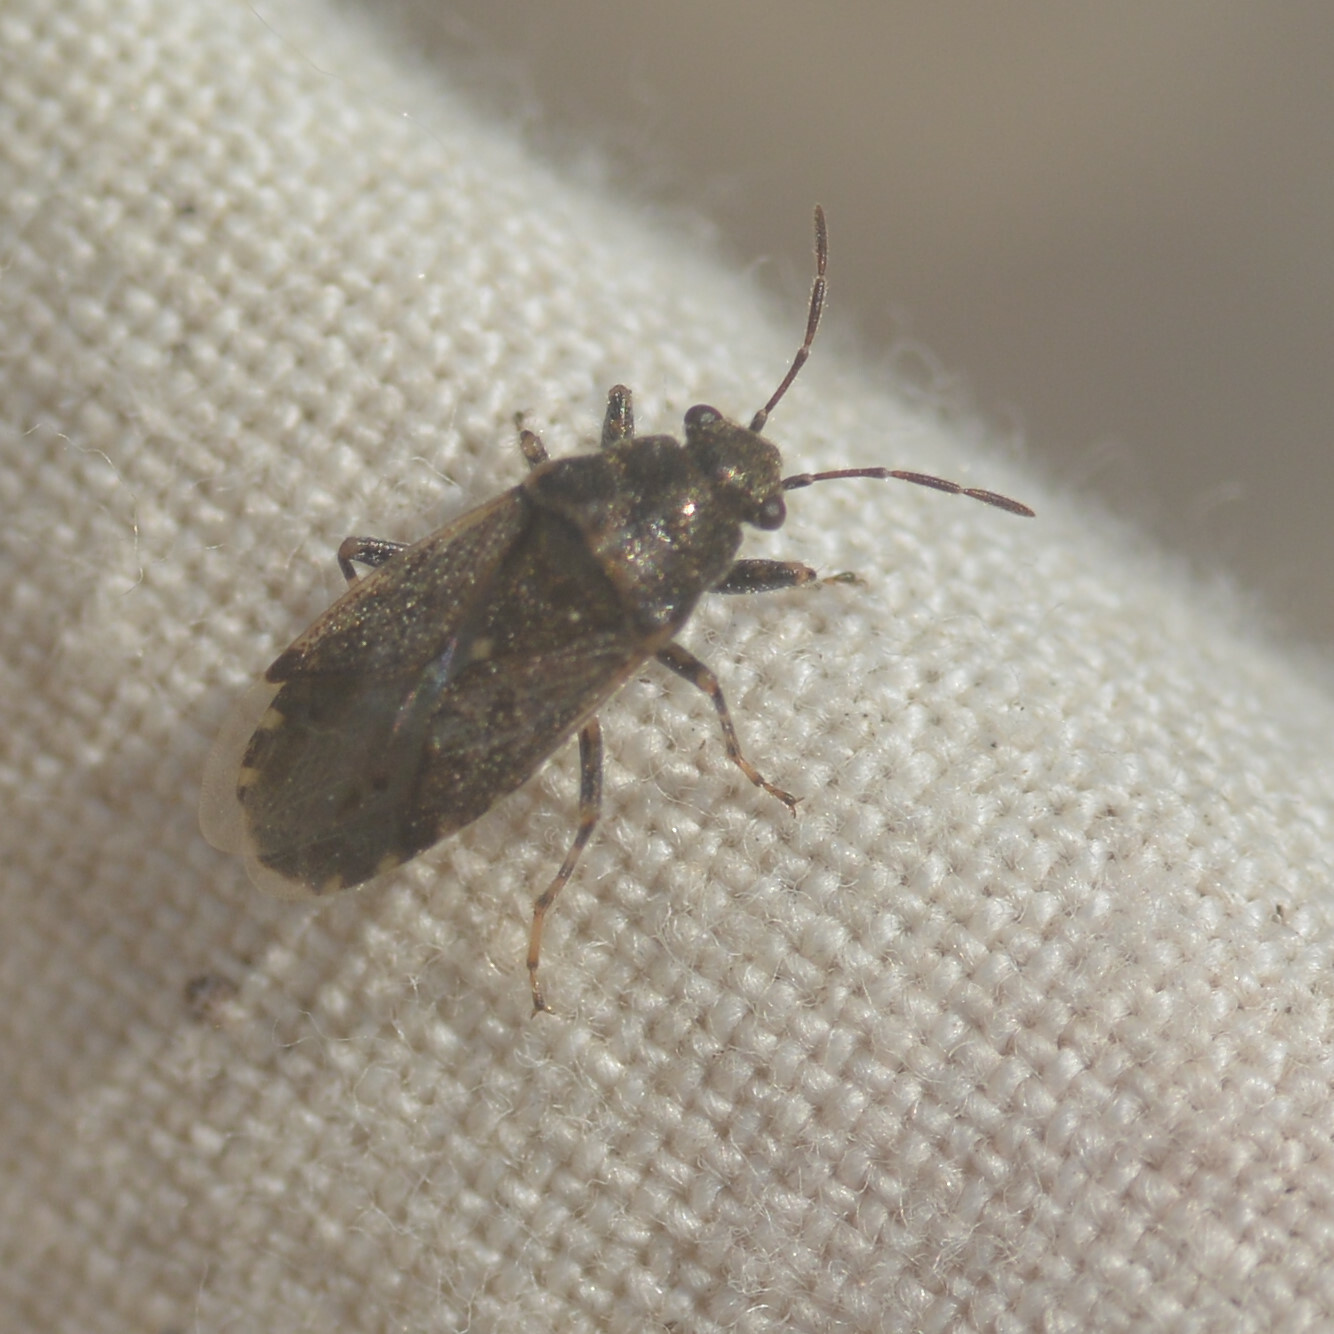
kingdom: Animalia
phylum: Arthropoda
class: Insecta
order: Hemiptera
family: Heterogastridae
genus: Heterogaster
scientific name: Heterogaster urticae
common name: Seed bug
